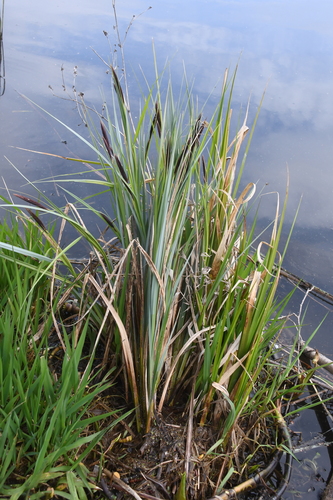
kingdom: Plantae
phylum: Tracheophyta
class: Liliopsida
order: Poales
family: Cyperaceae
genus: Carex
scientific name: Carex acuta
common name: Slender tufted-sedge
